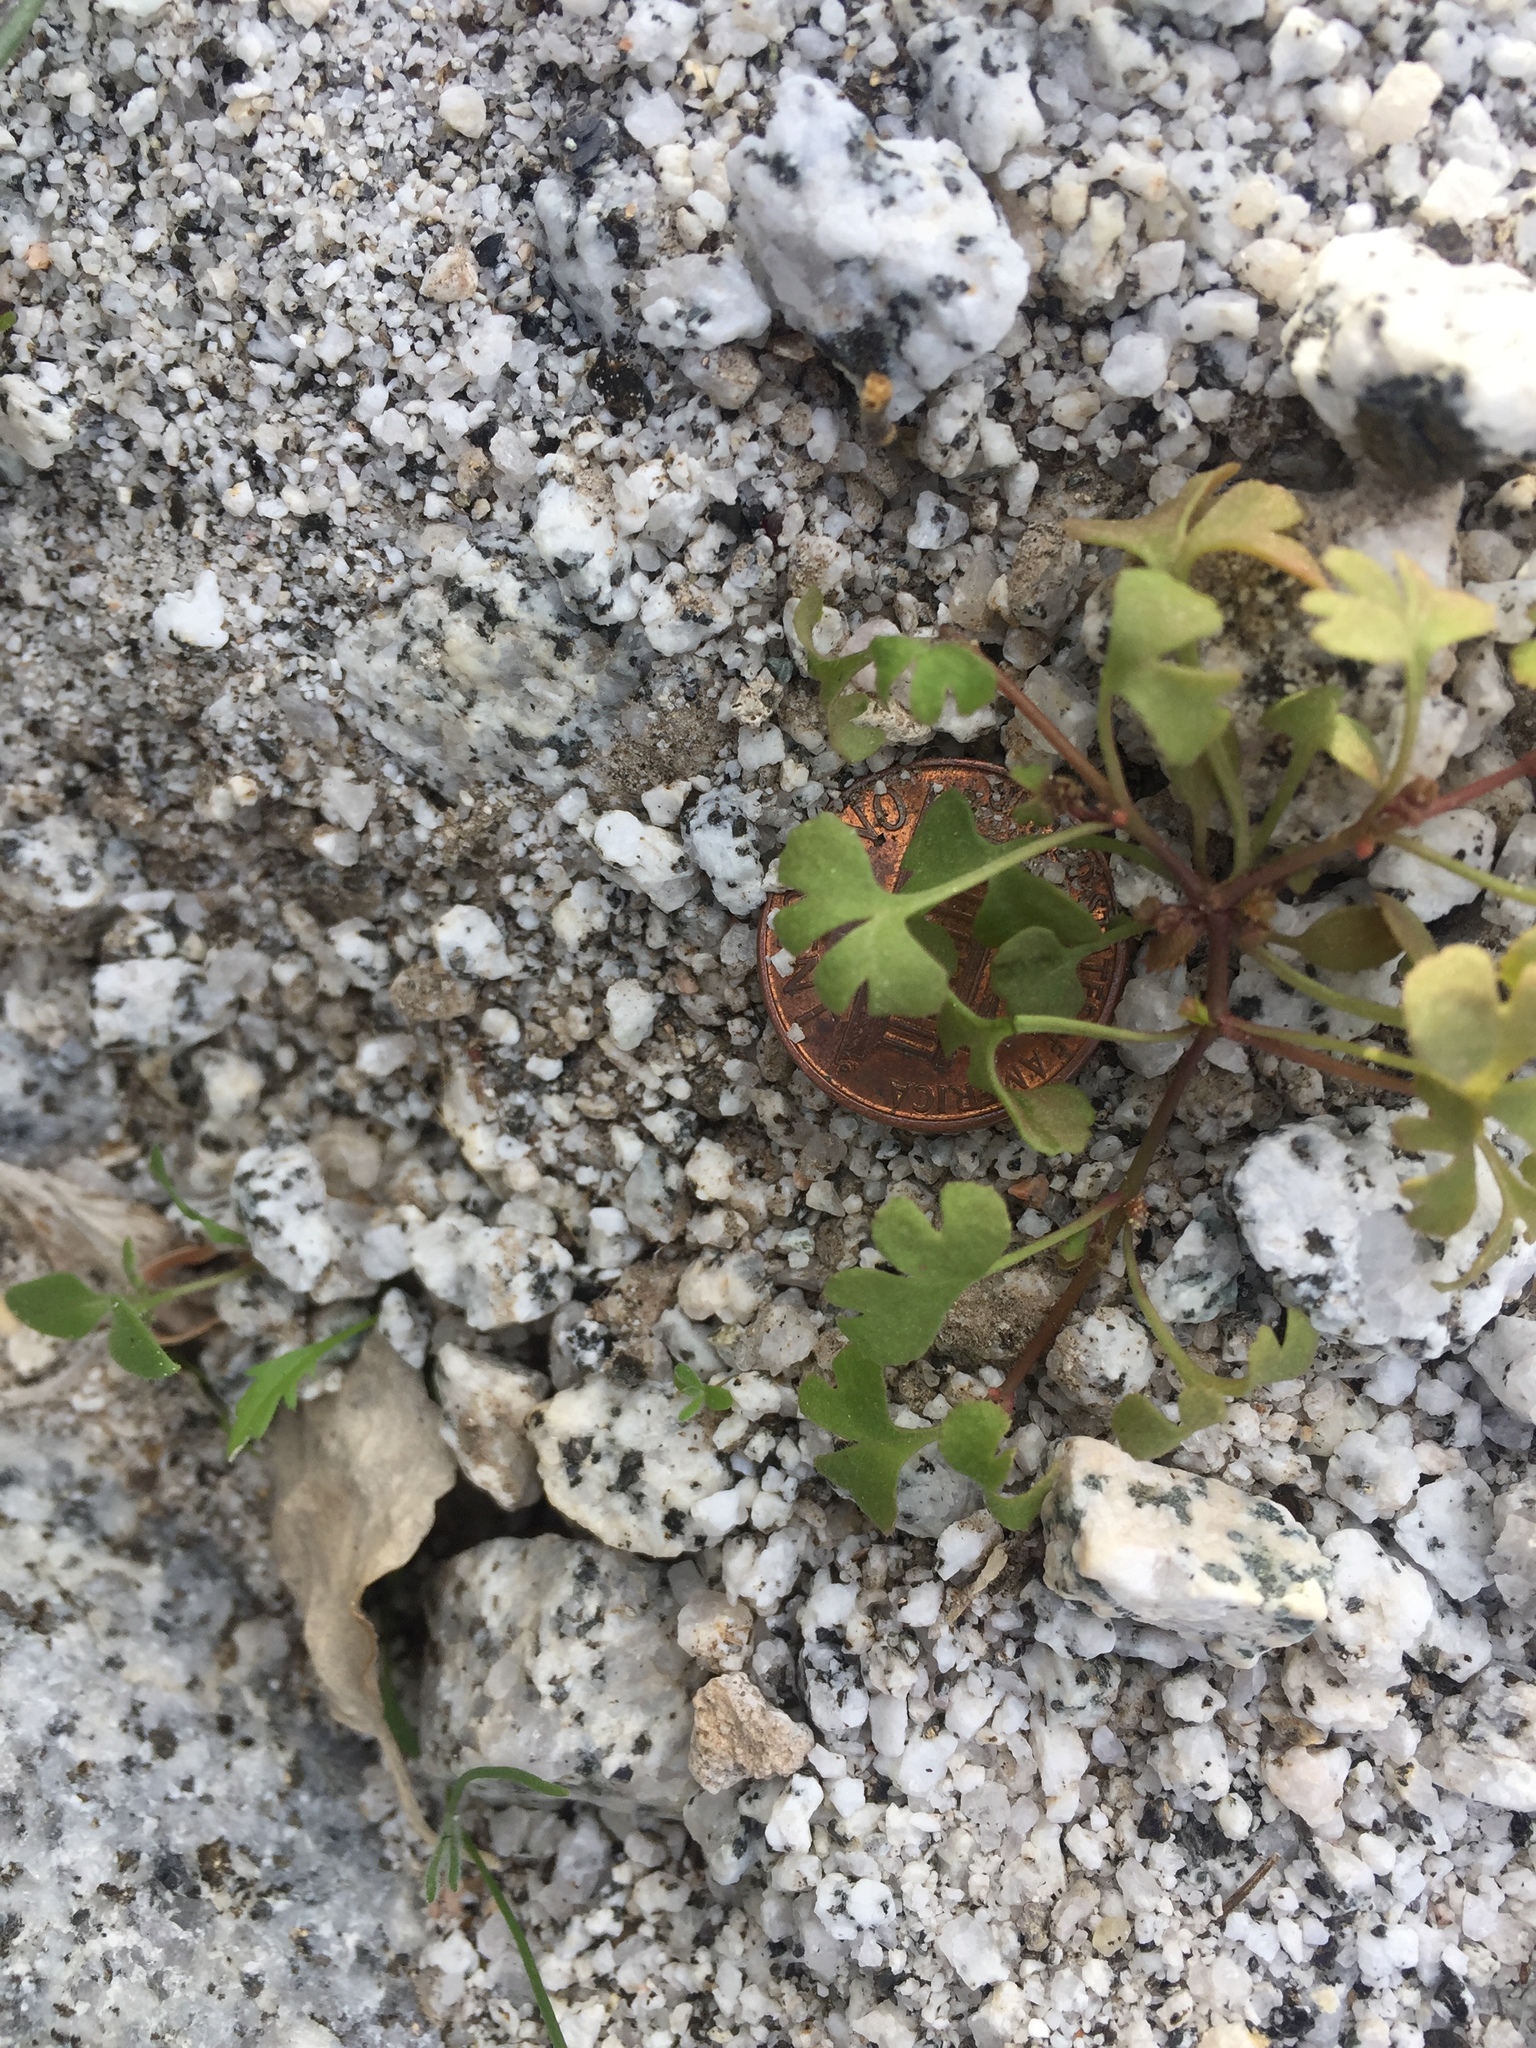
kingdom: Plantae
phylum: Tracheophyta
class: Magnoliopsida
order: Caryophyllales
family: Polygonaceae
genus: Pterostegia
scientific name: Pterostegia drymarioides
